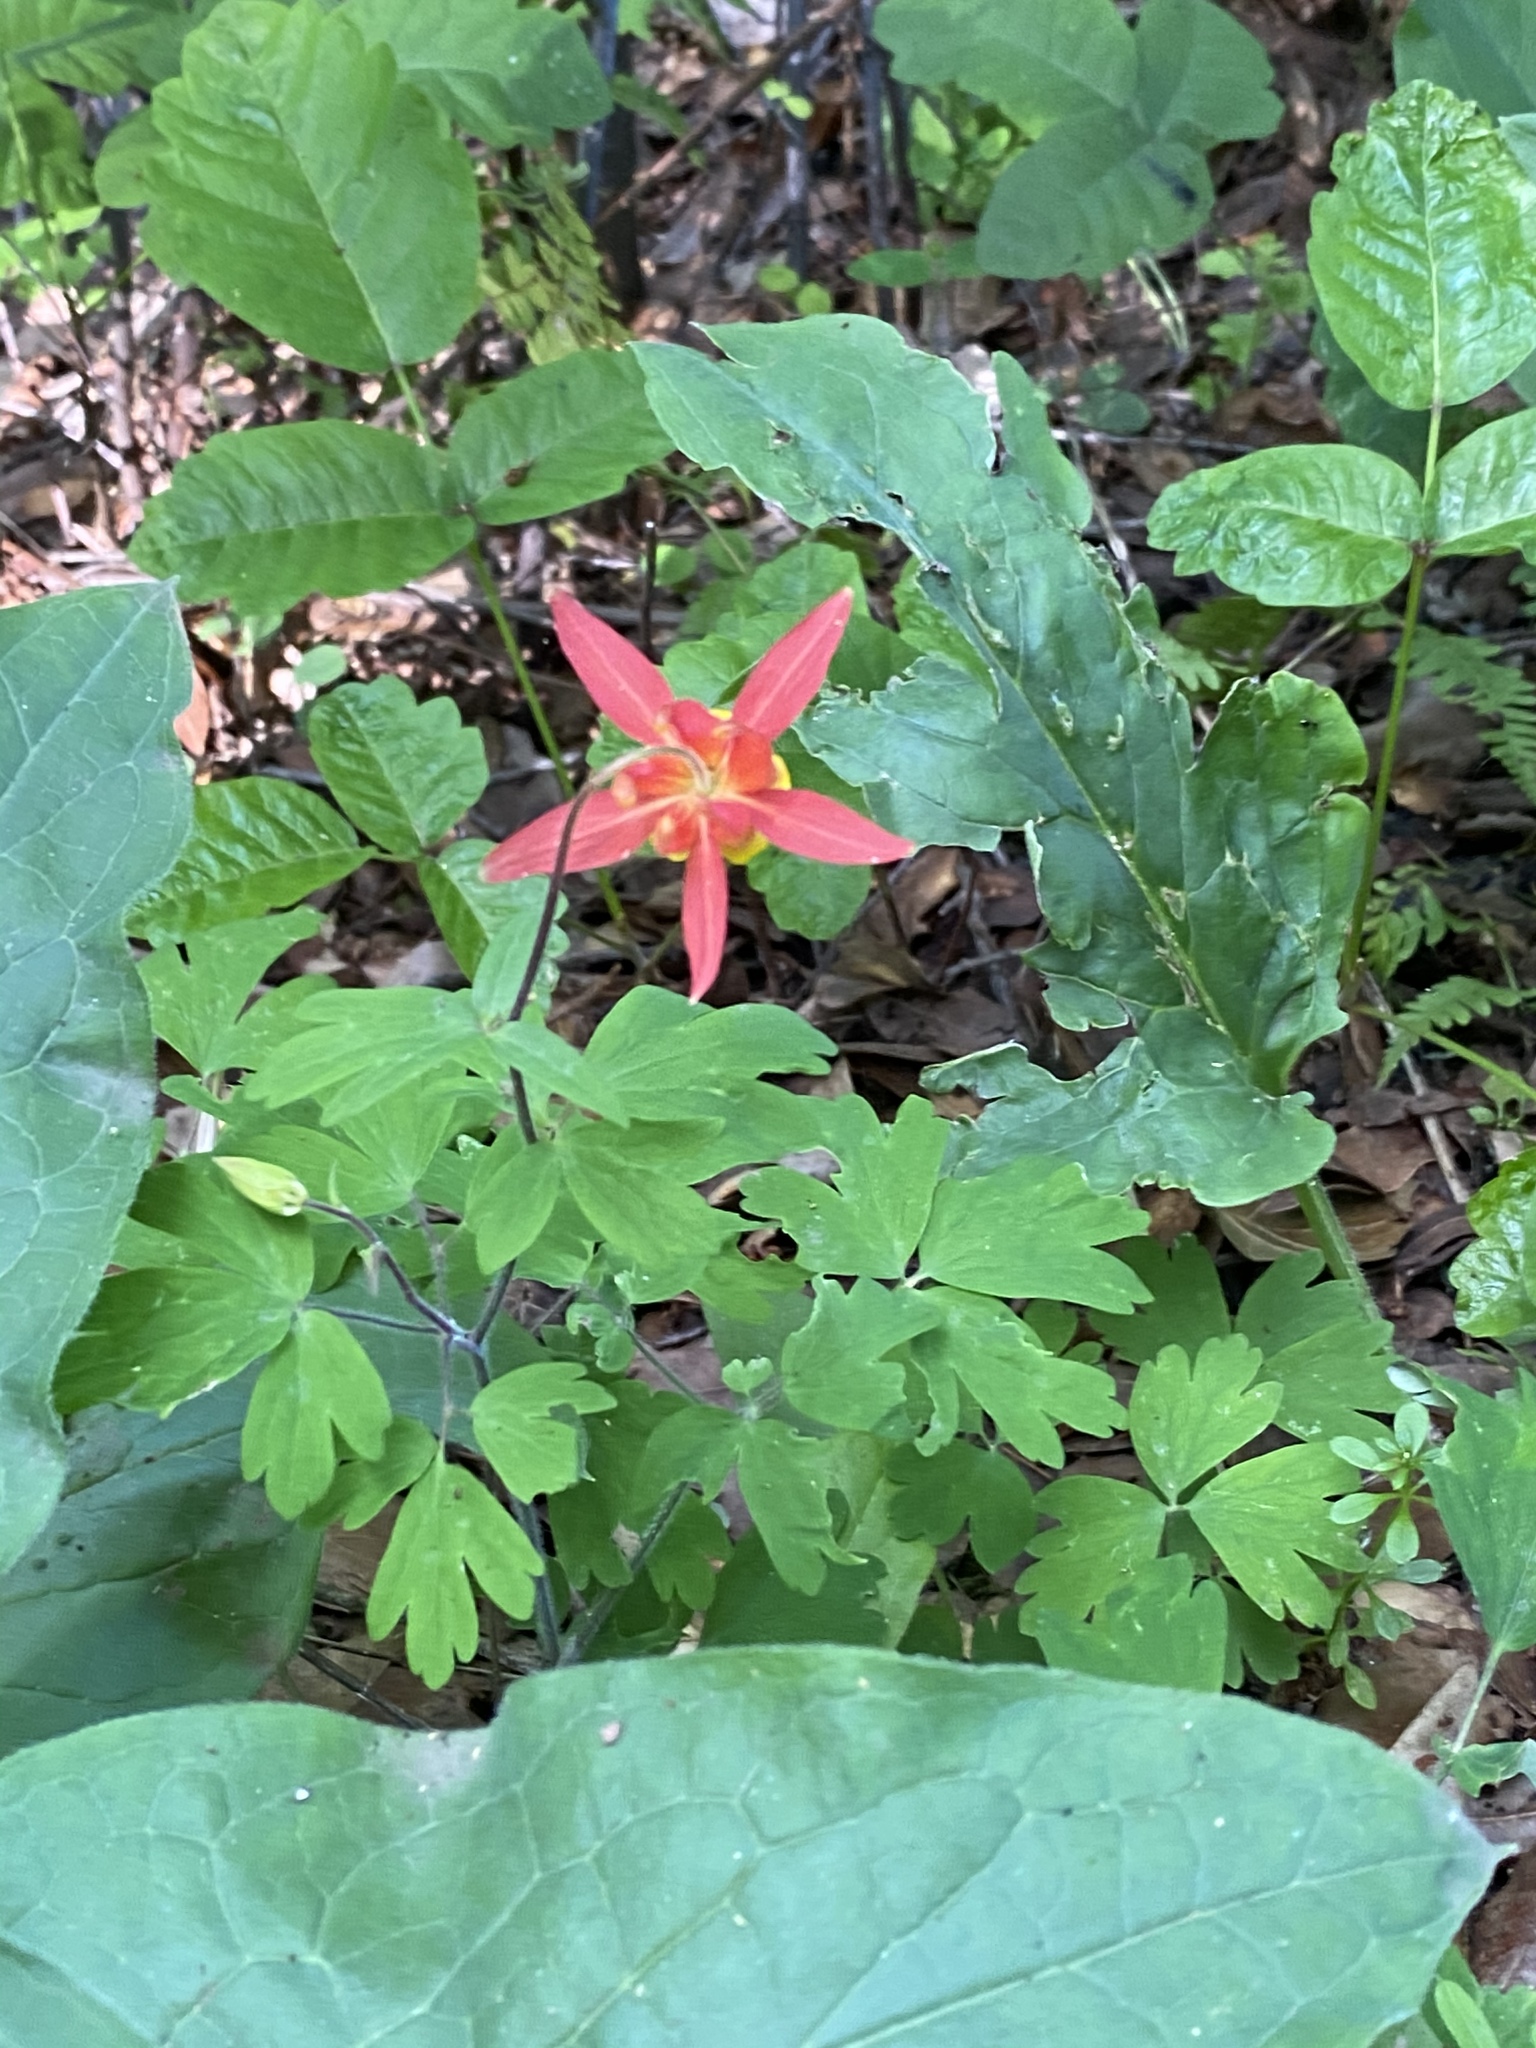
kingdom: Plantae
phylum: Tracheophyta
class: Magnoliopsida
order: Ranunculales
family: Ranunculaceae
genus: Aquilegia
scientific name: Aquilegia formosa
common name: Sitka columbine
